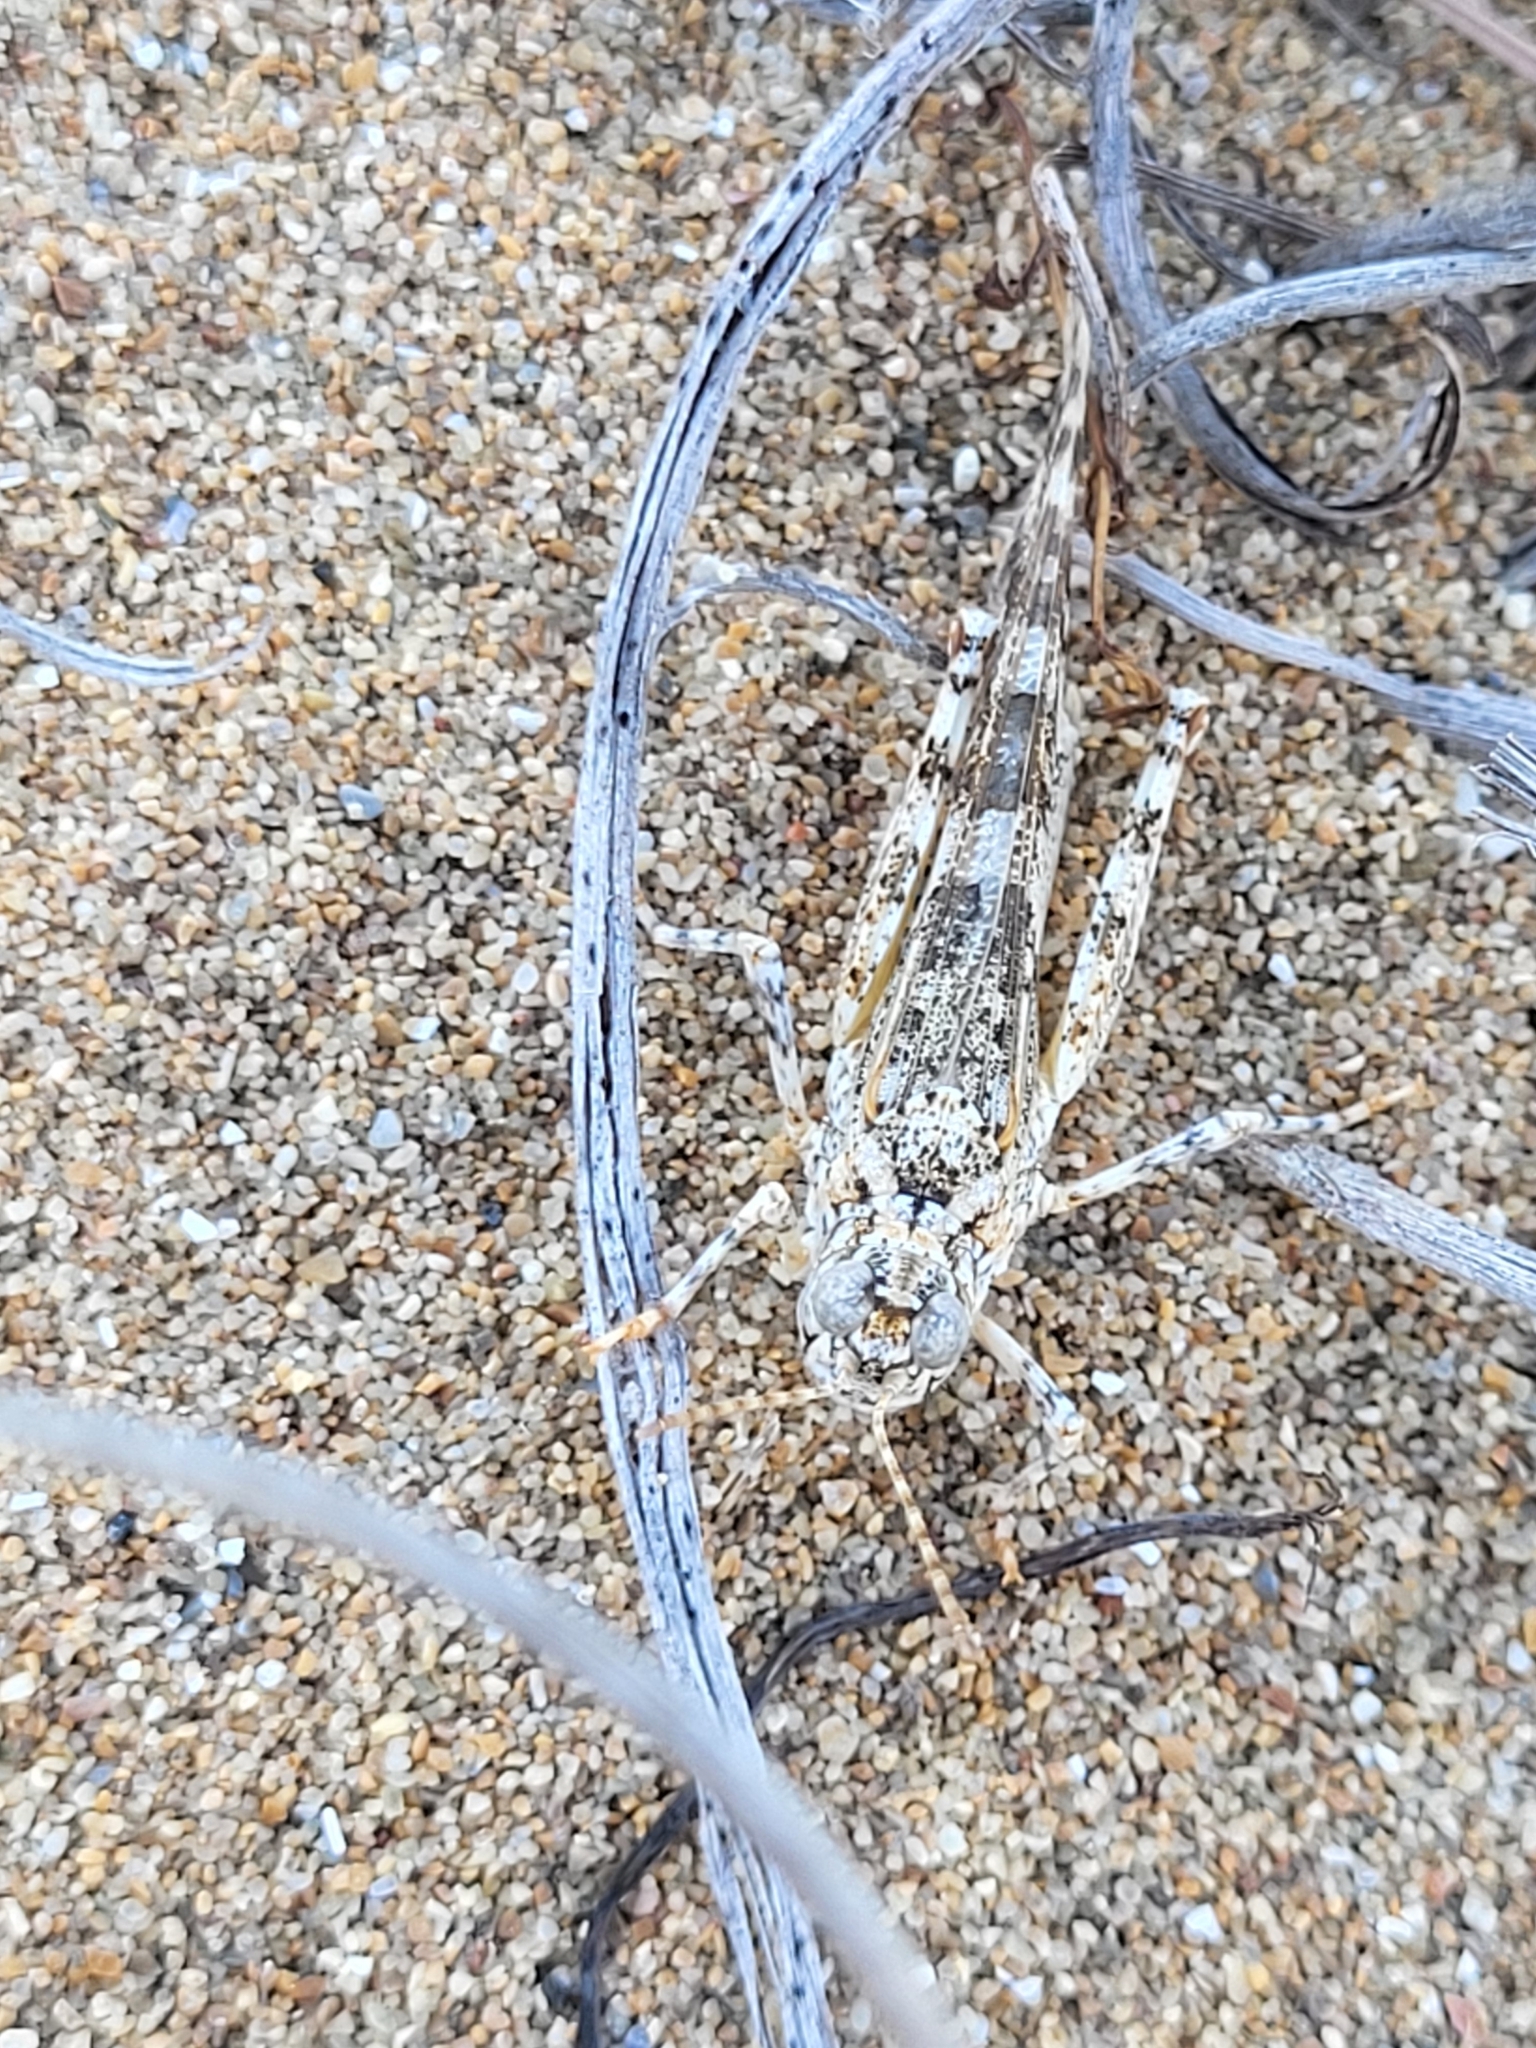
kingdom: Animalia
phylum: Arthropoda
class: Insecta
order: Orthoptera
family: Acrididae
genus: Acrotylus
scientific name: Acrotylus
